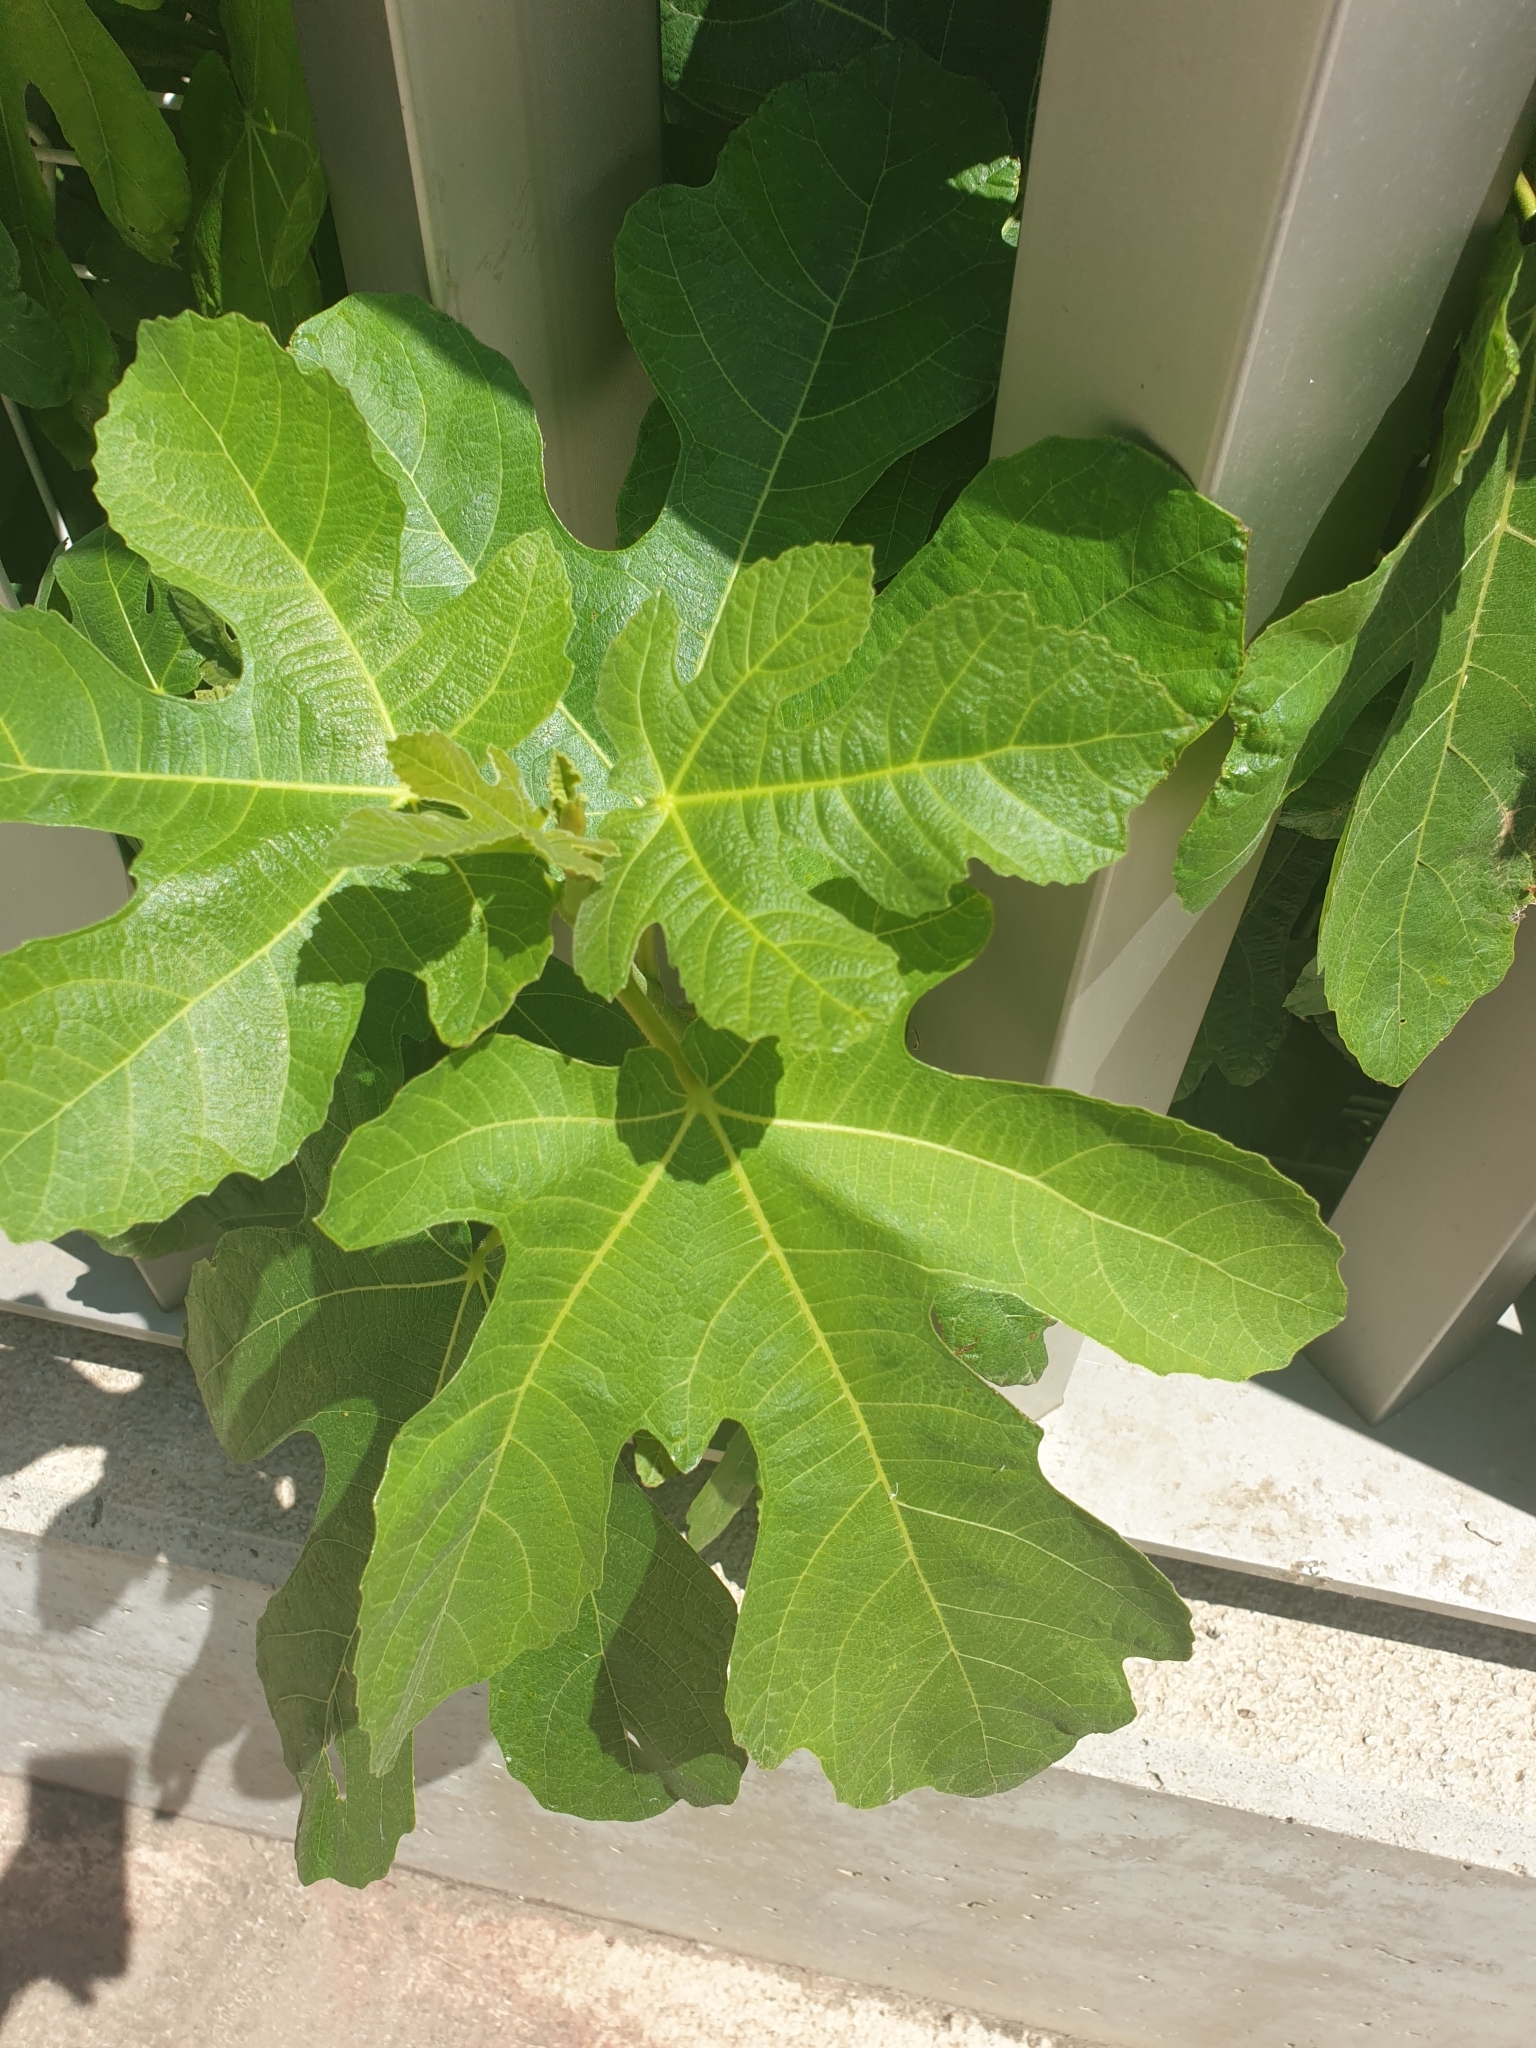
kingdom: Plantae
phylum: Tracheophyta
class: Magnoliopsida
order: Rosales
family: Moraceae
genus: Ficus
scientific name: Ficus carica
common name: Fig
